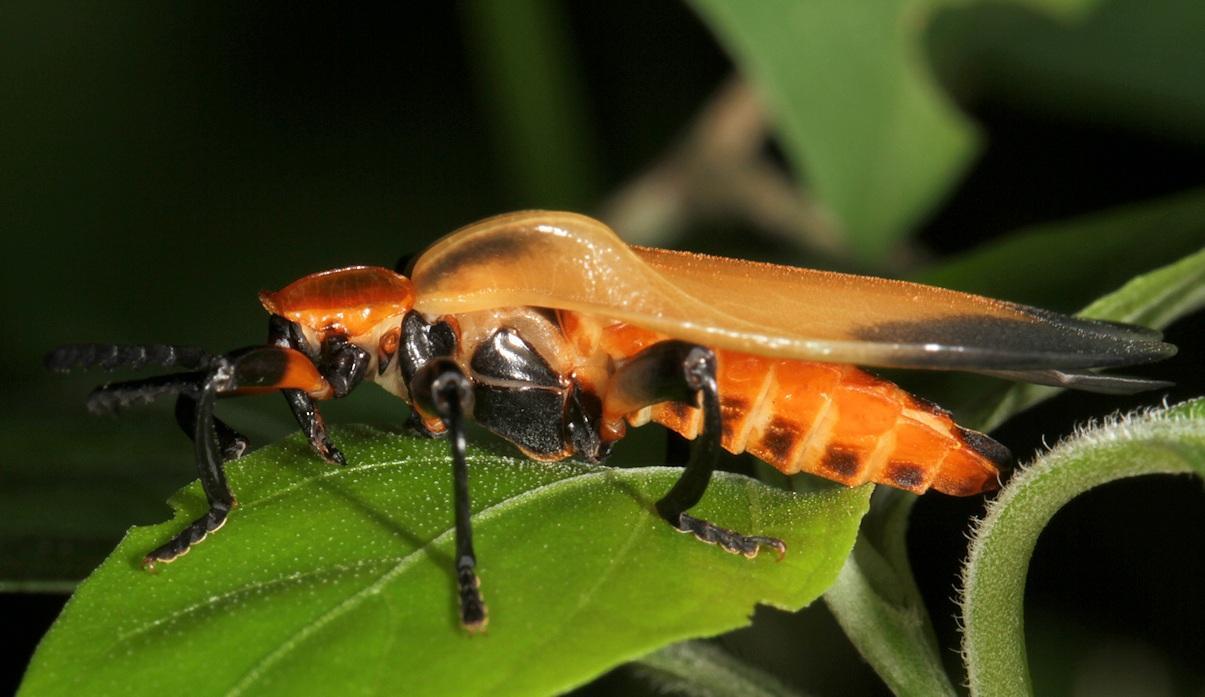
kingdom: Animalia
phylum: Arthropoda
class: Insecta
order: Coleoptera
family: Lycidae
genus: Lycus
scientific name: Lycus
